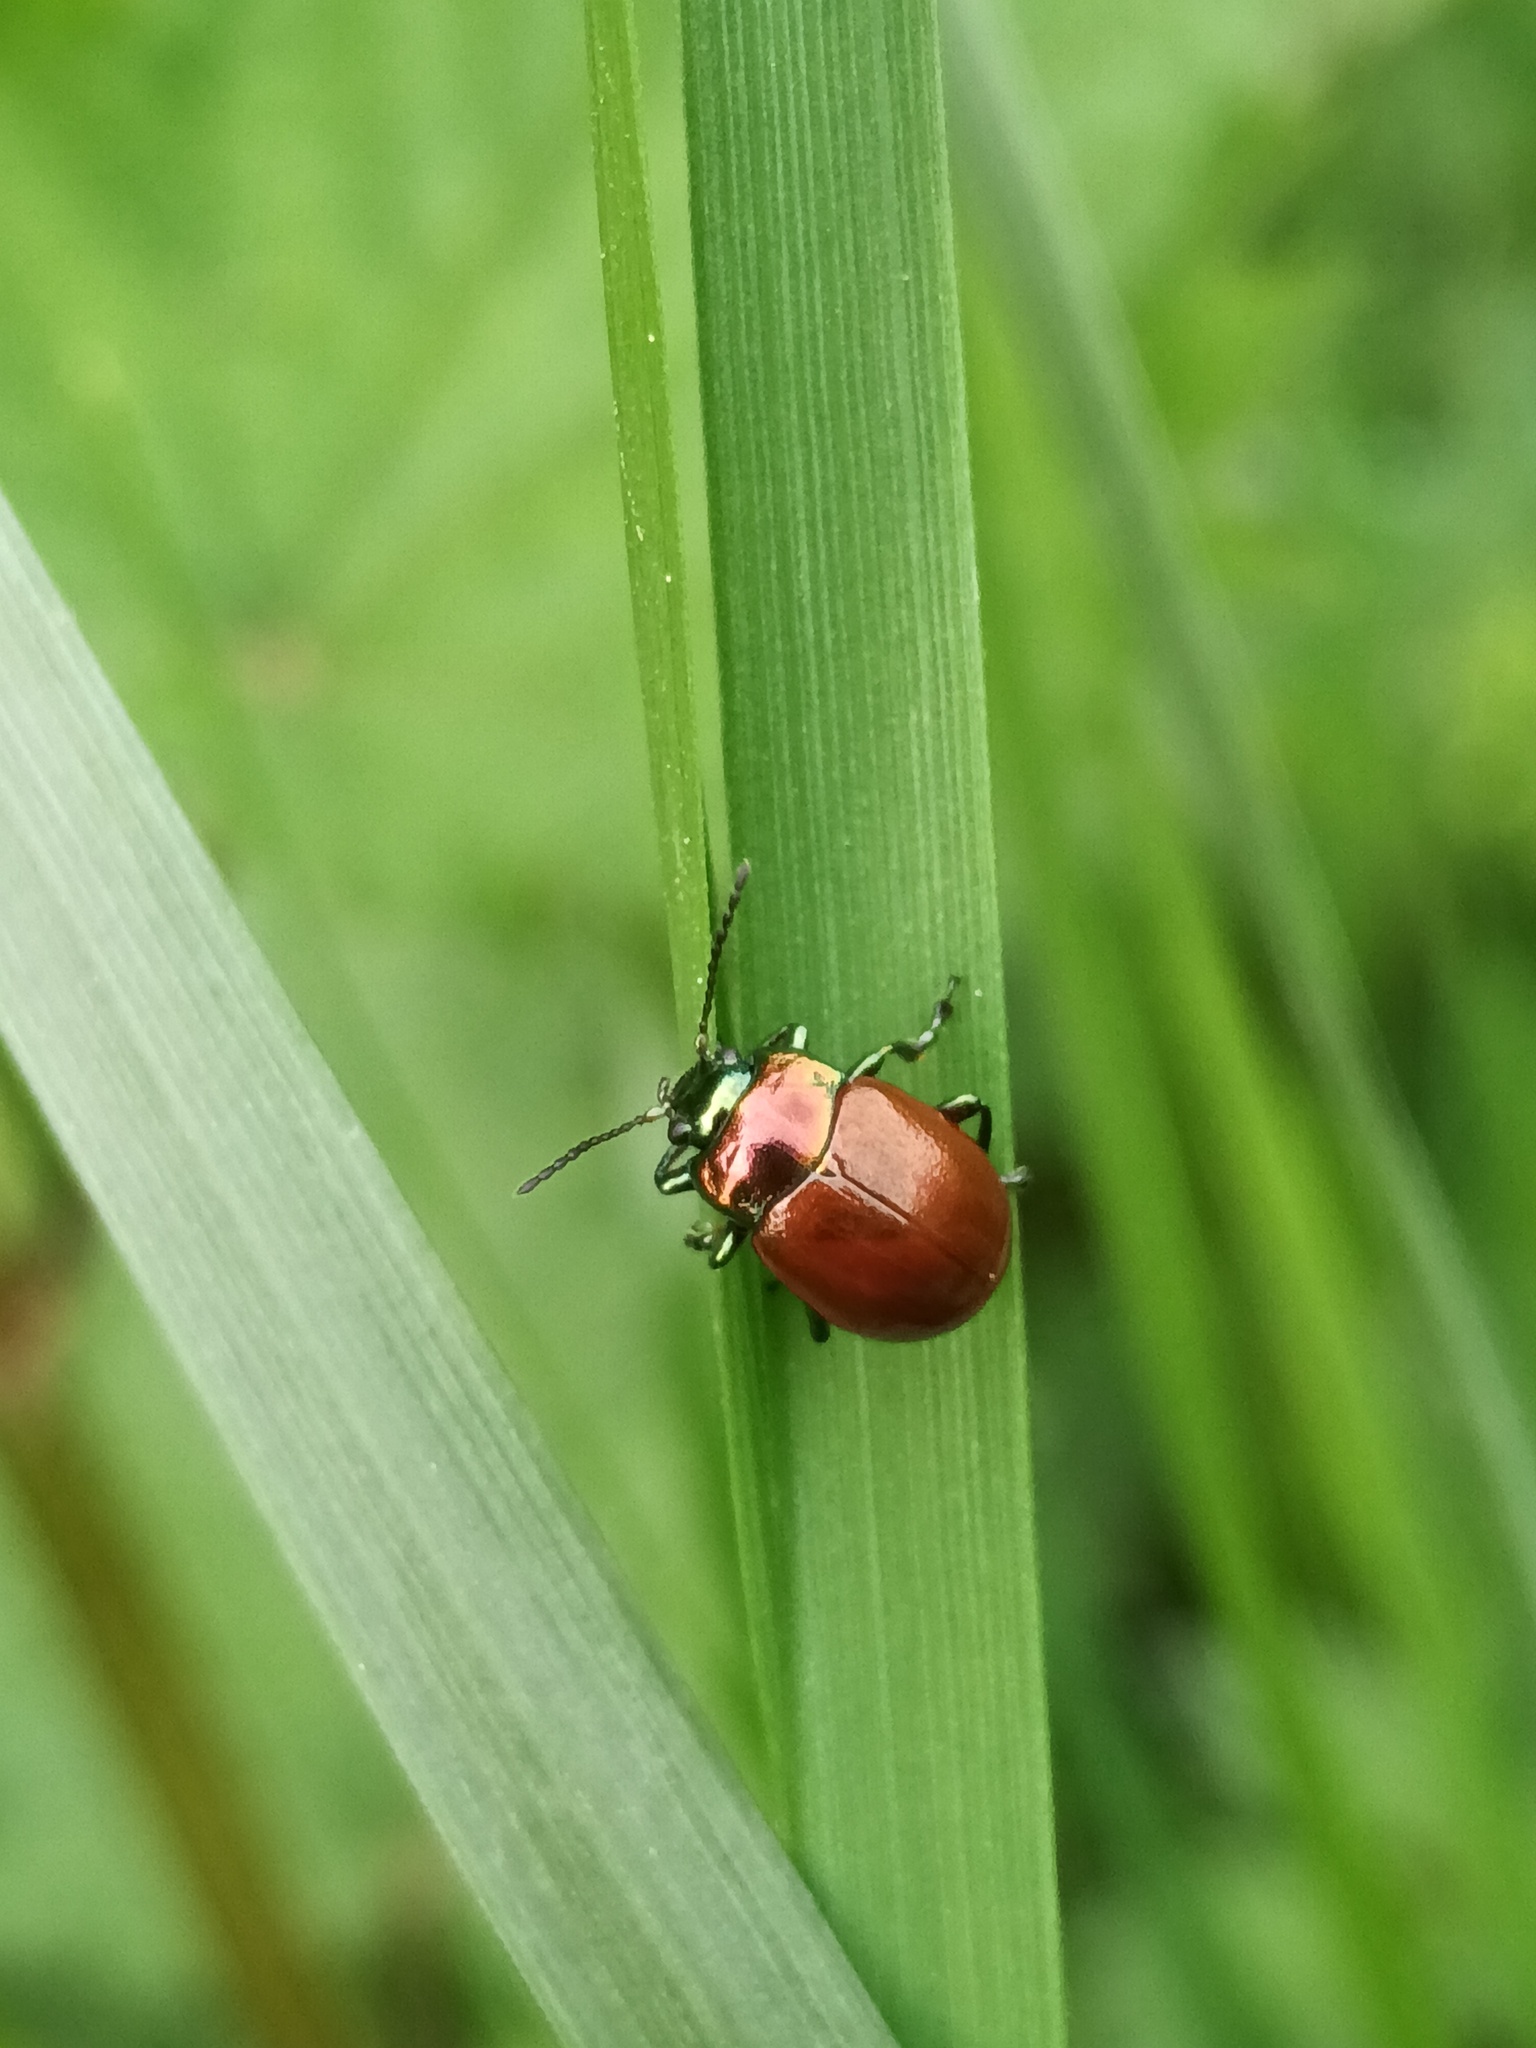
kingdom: Animalia
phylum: Arthropoda
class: Insecta
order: Coleoptera
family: Chrysomelidae
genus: Chrysomela
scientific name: Chrysomela polita
